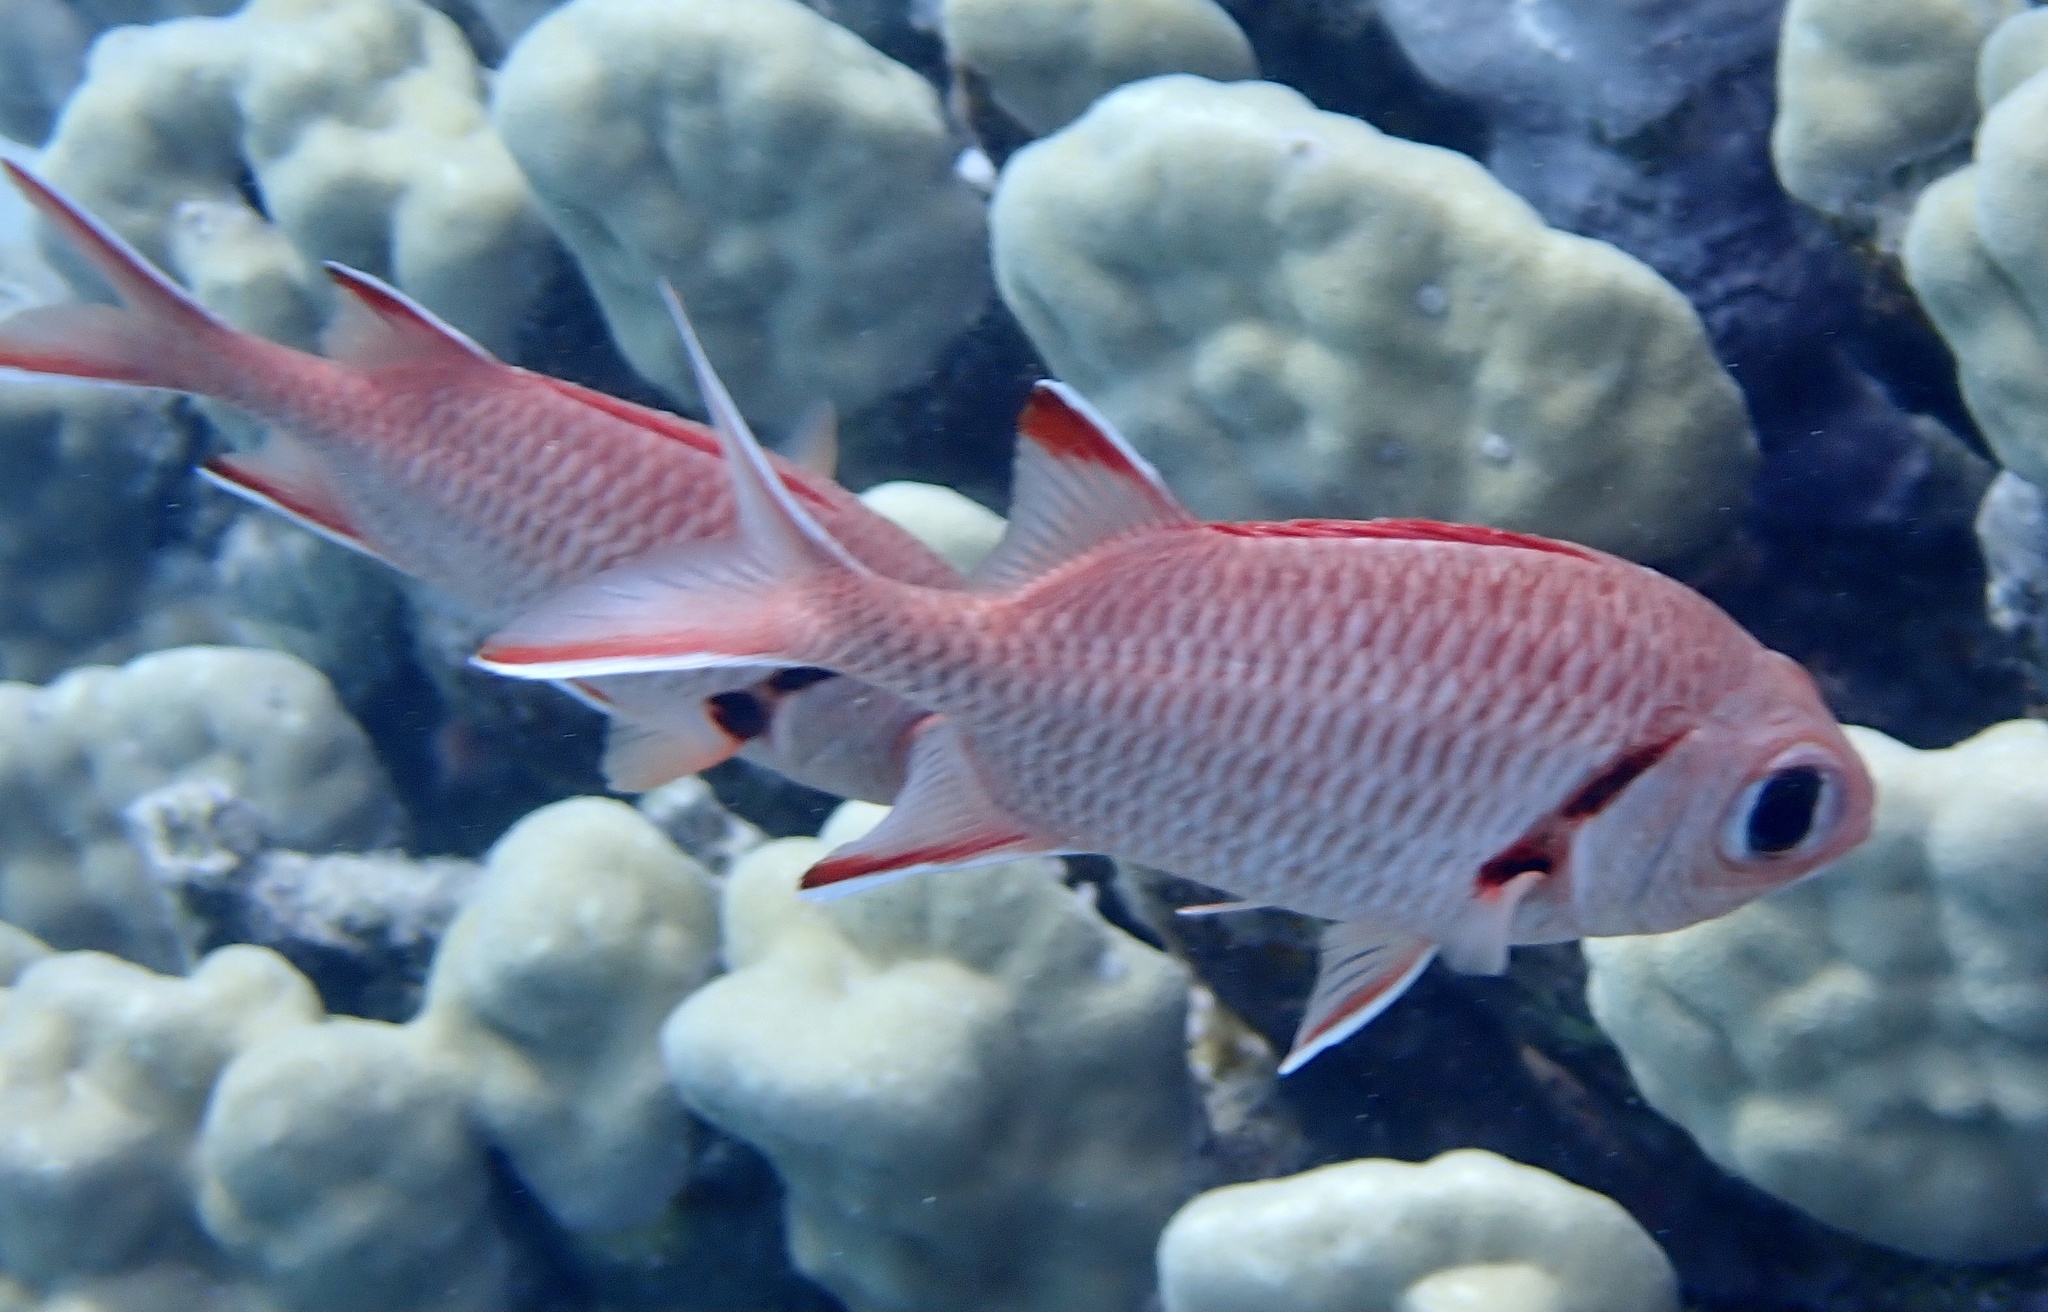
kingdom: Animalia
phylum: Chordata
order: Beryciformes
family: Holocentridae
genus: Myripristis
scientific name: Myripristis murdjan
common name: Big-eye soldierfish
